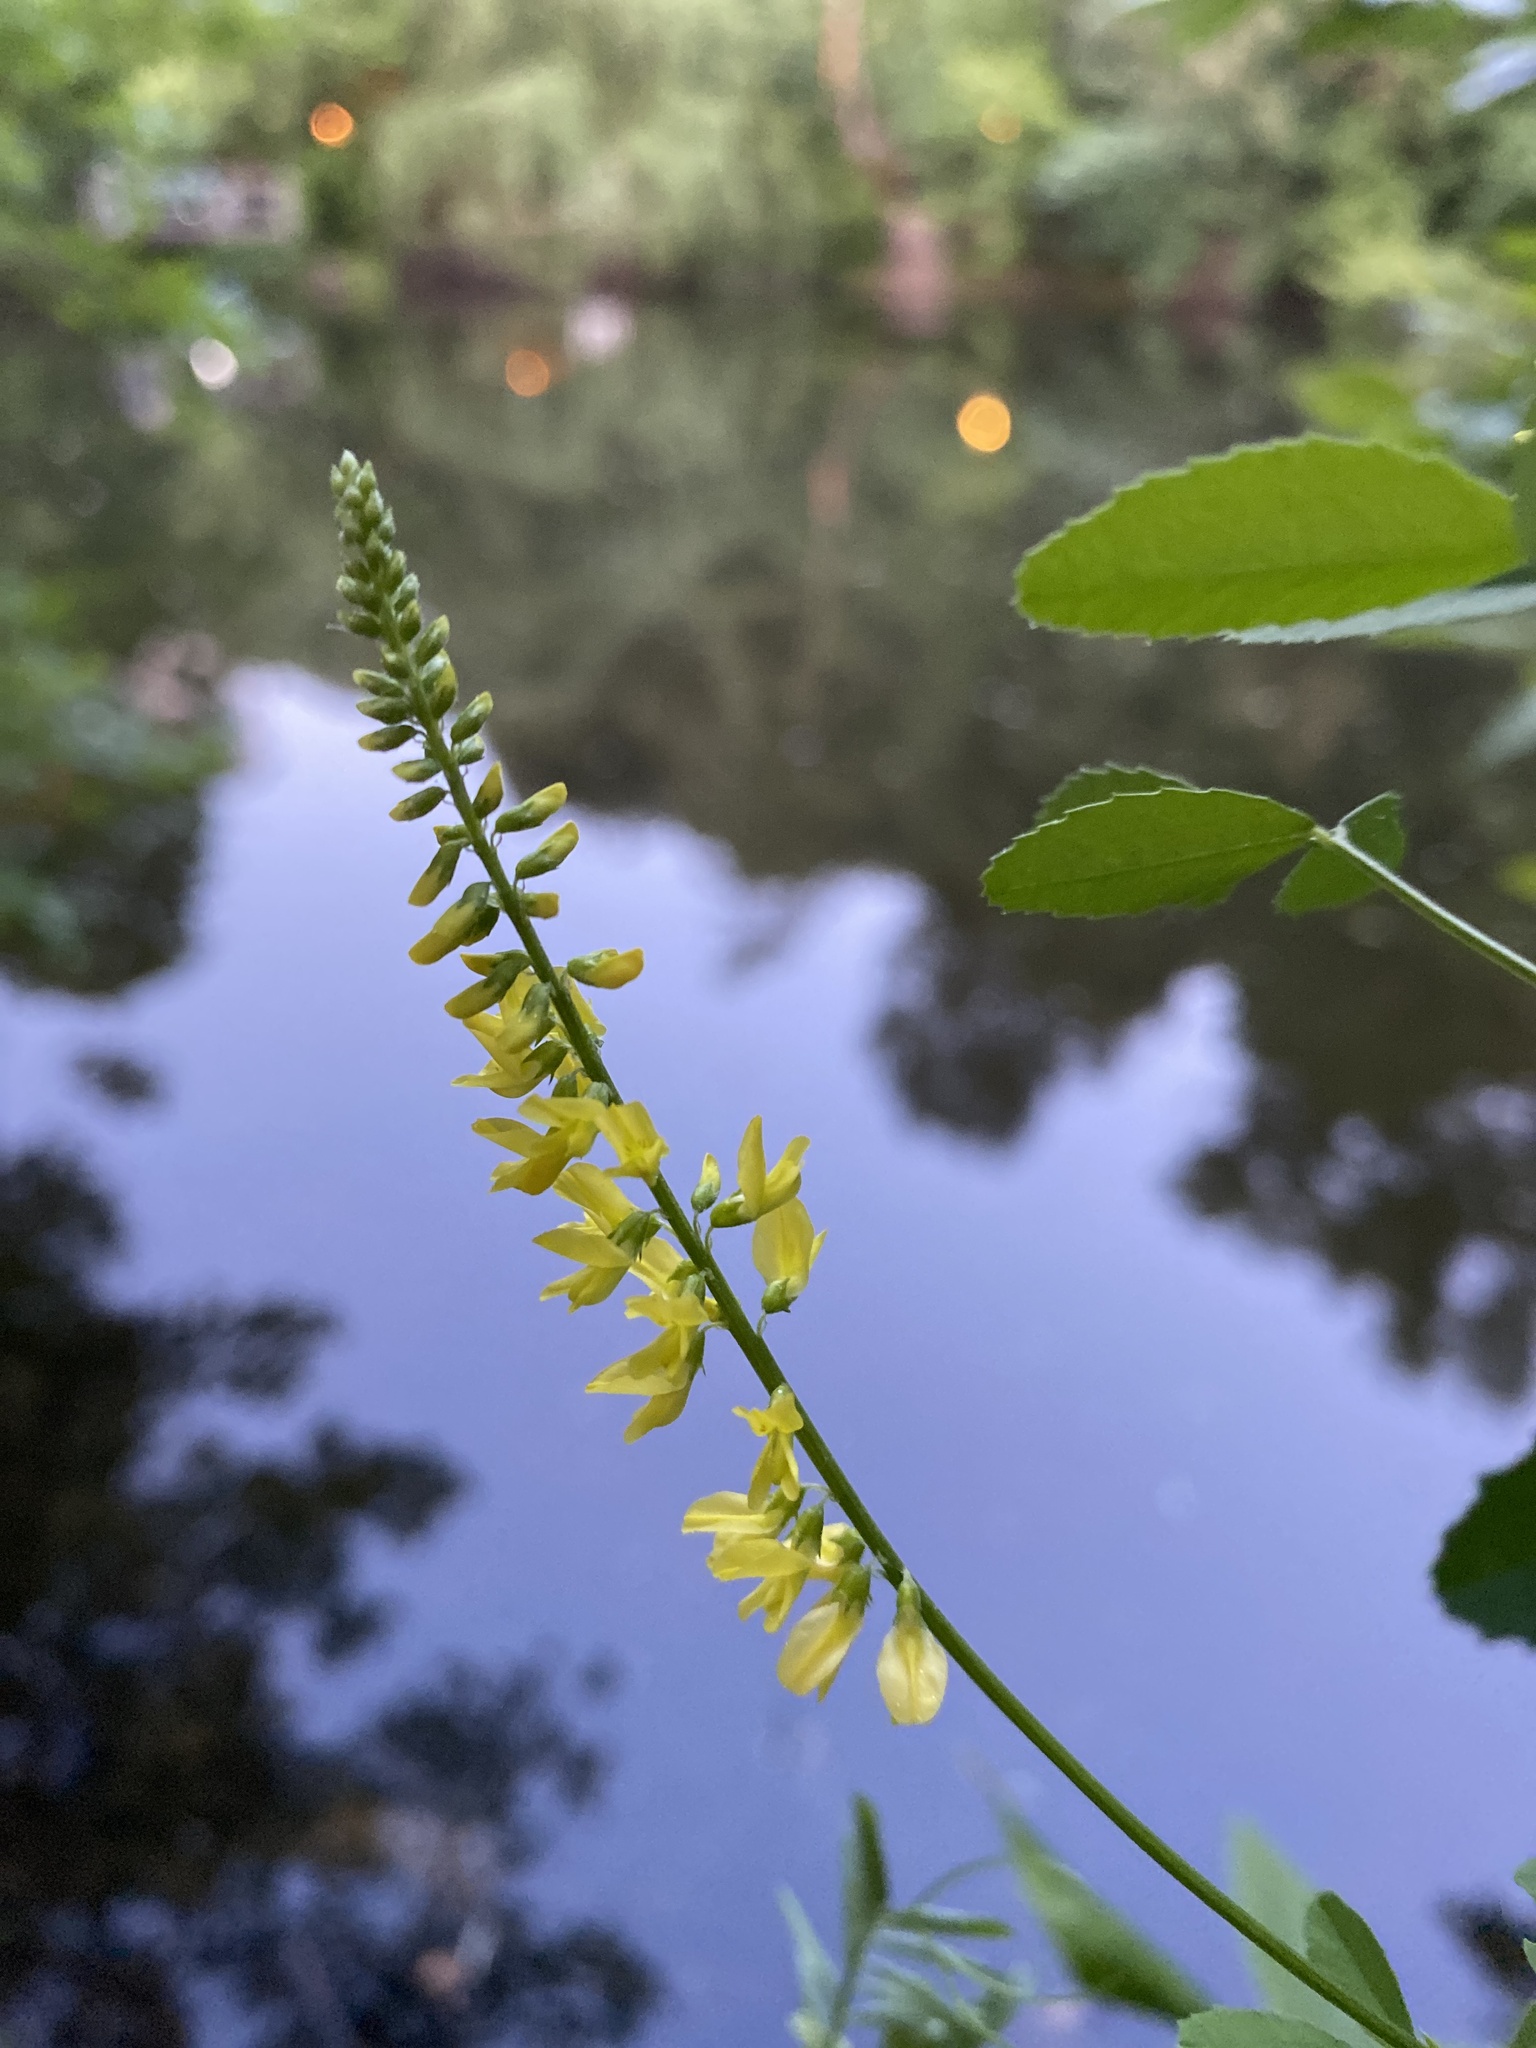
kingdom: Plantae
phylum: Tracheophyta
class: Magnoliopsida
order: Fabales
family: Fabaceae
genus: Melilotus
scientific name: Melilotus officinalis
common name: Sweetclover
